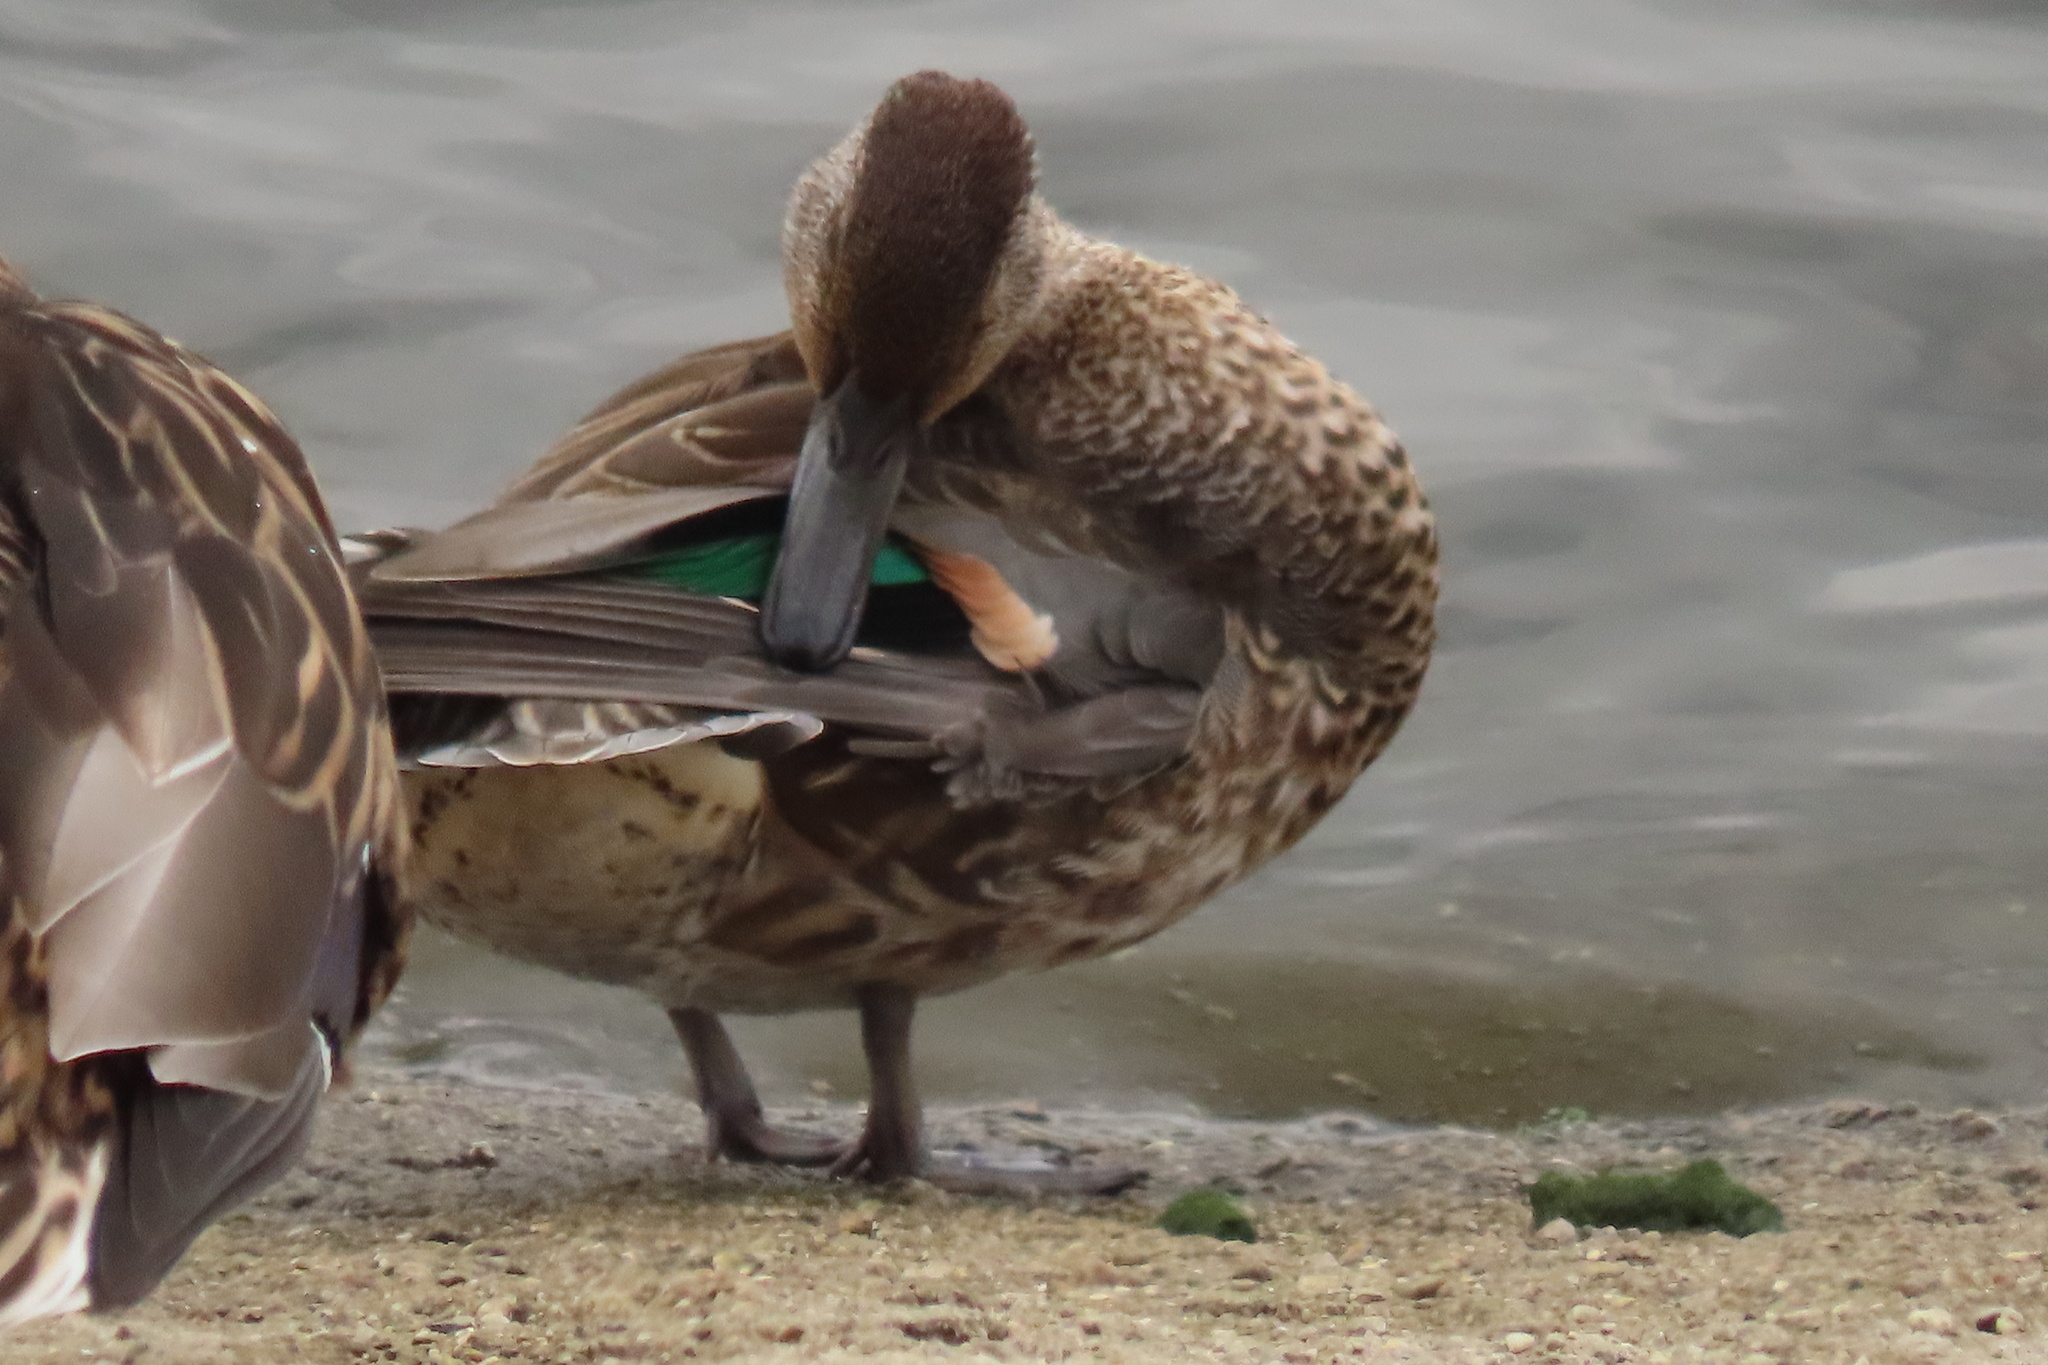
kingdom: Animalia
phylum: Chordata
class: Aves
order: Anseriformes
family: Anatidae
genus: Anas
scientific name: Anas crecca
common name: Eurasian teal
